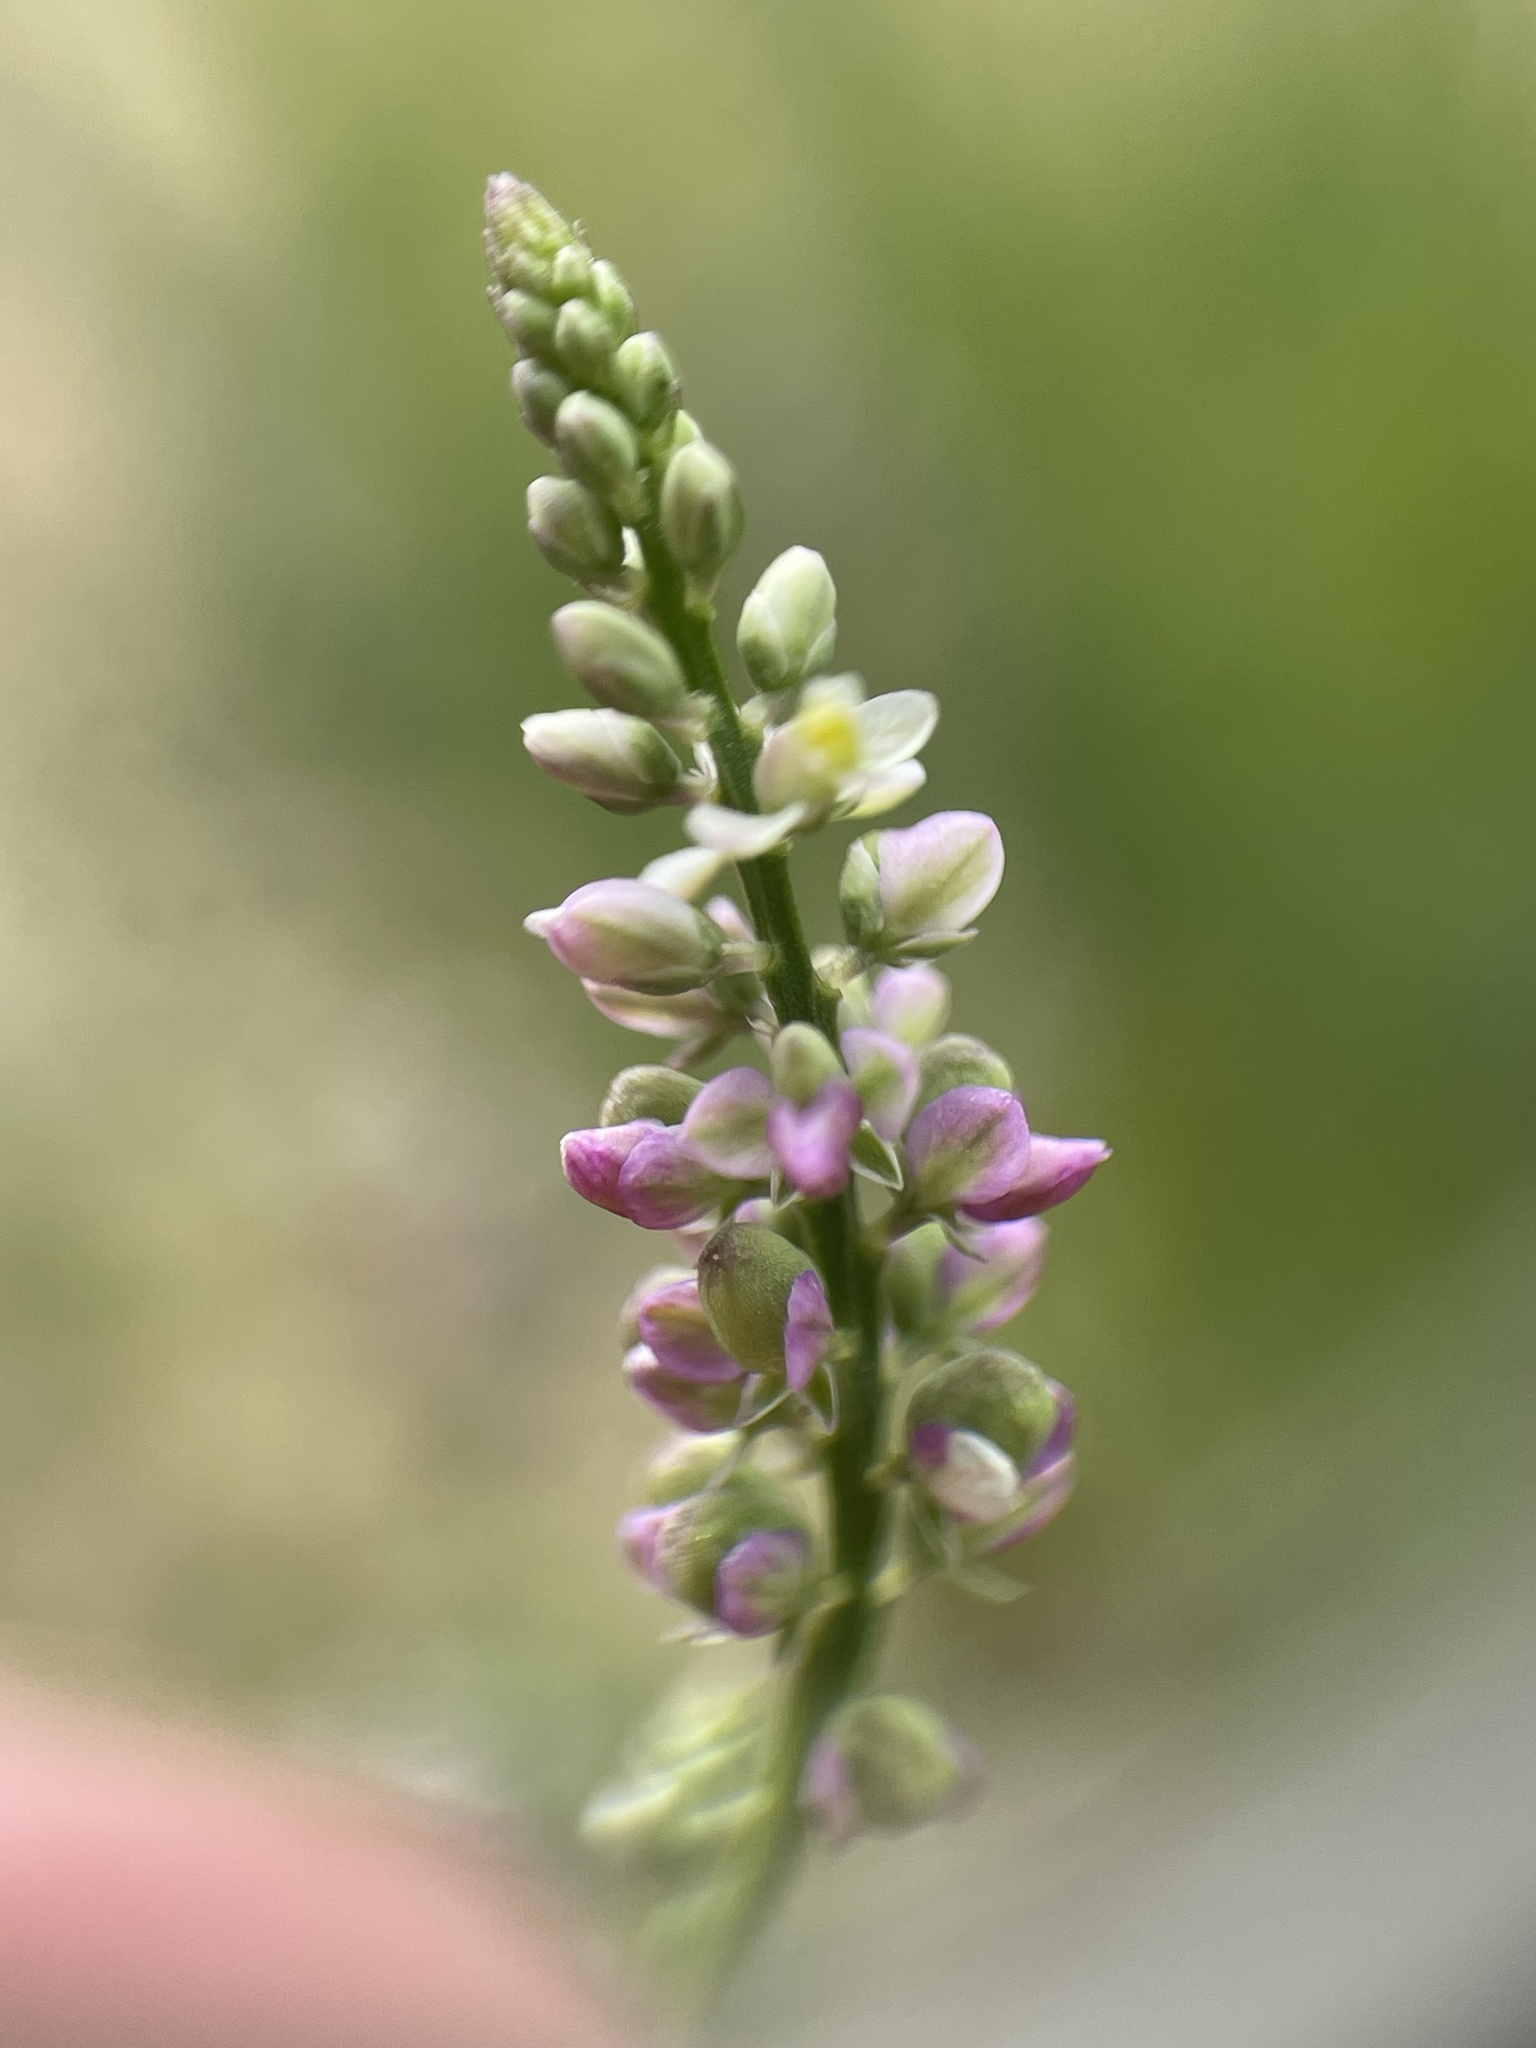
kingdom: Plantae
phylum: Tracheophyta
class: Magnoliopsida
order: Fabales
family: Polygalaceae
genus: Polygala
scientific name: Polygala ambigua
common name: Alternate milkwort
